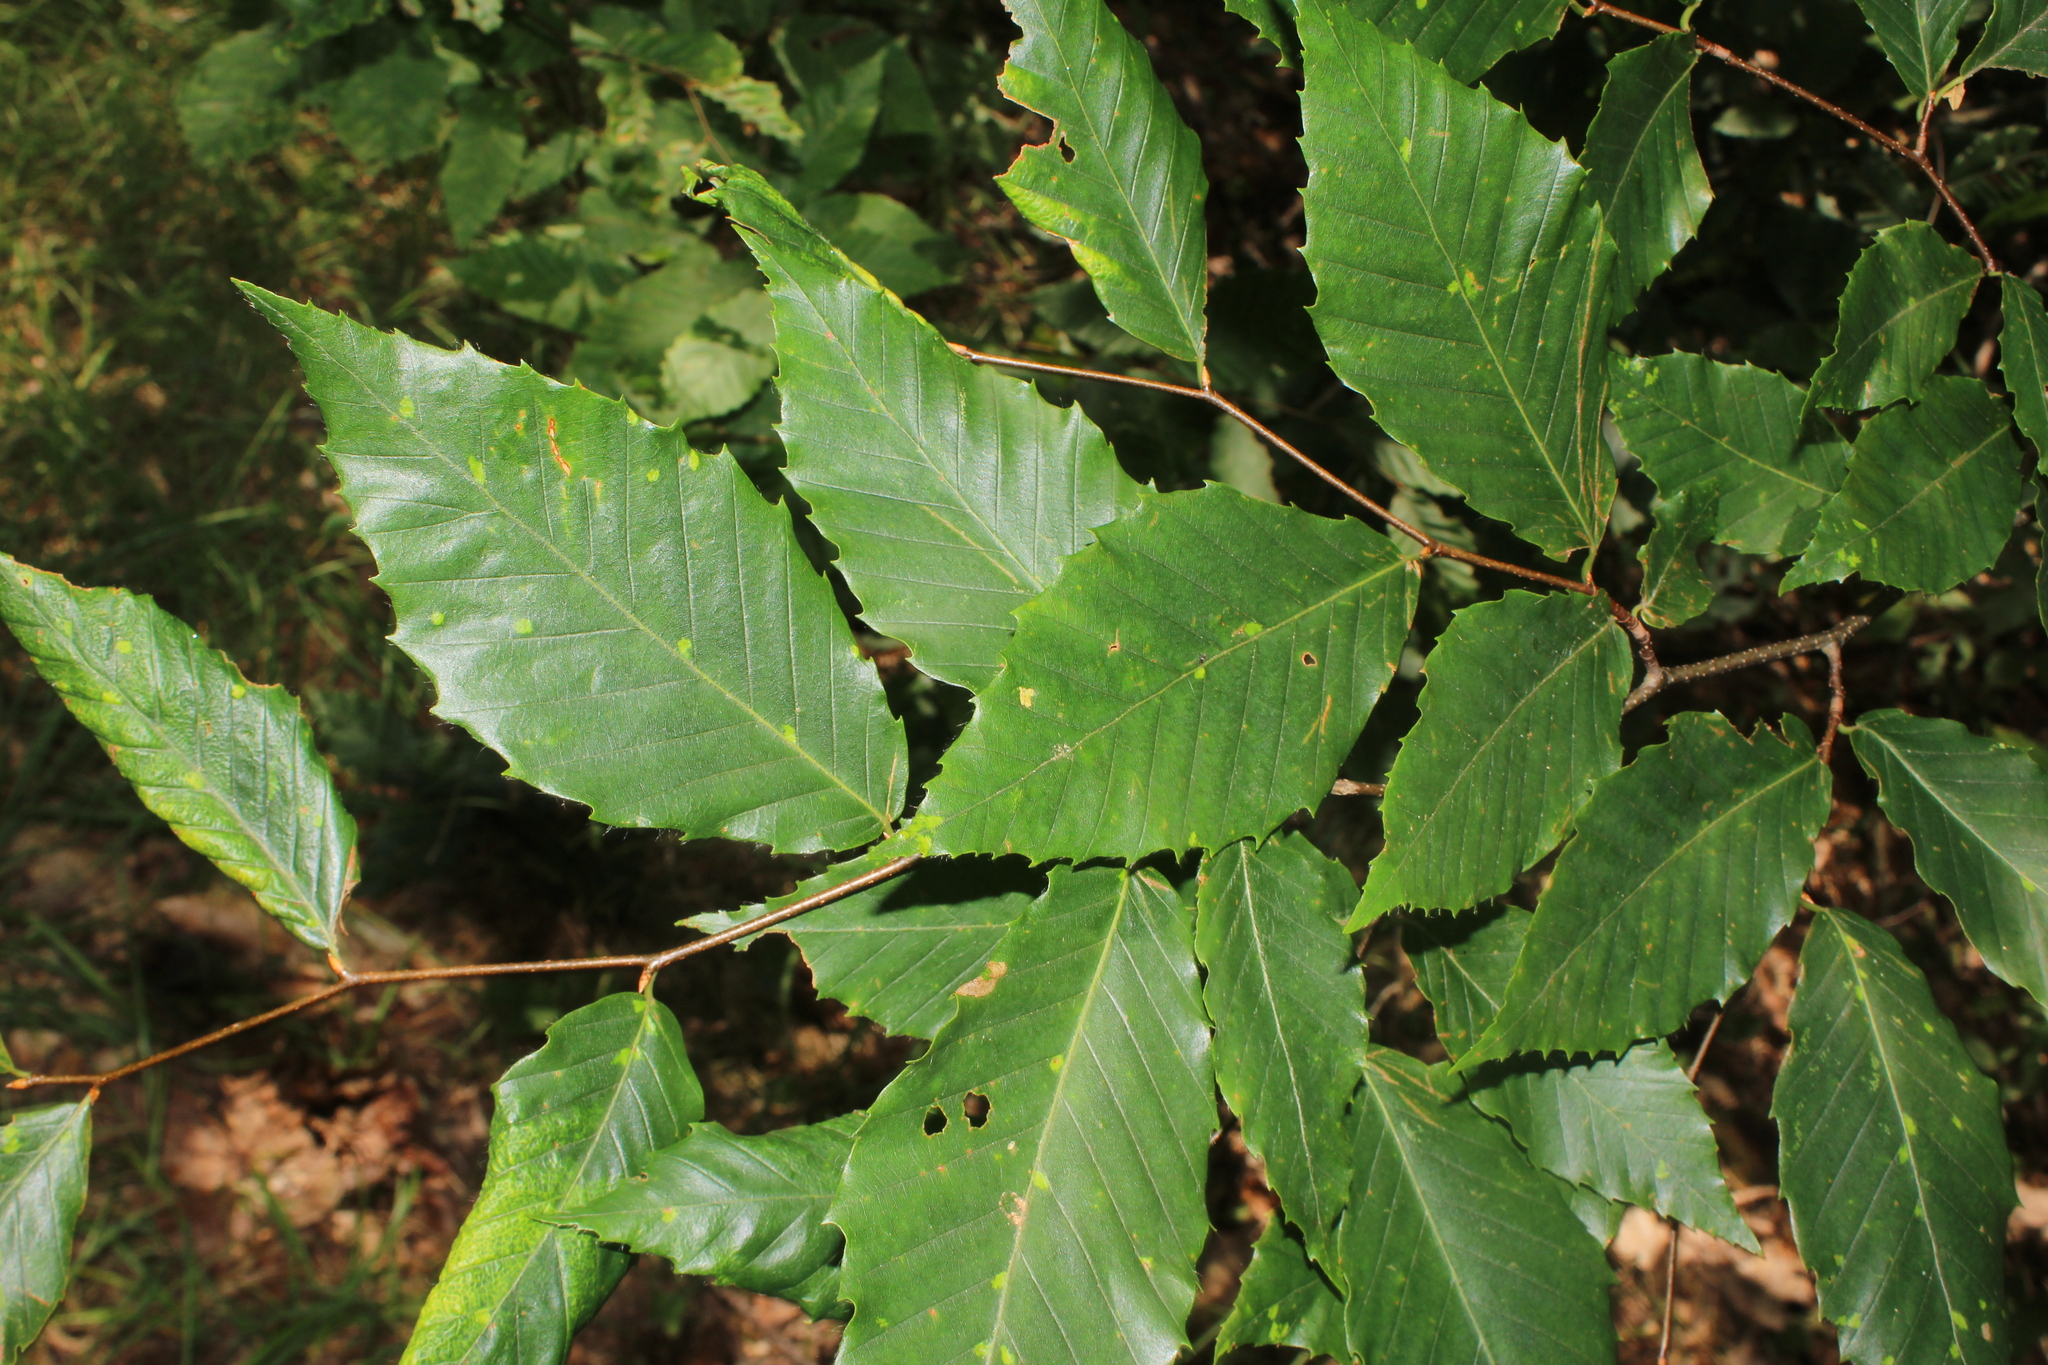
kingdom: Plantae
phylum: Tracheophyta
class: Magnoliopsida
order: Fagales
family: Fagaceae
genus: Fagus
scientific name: Fagus grandifolia
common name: American beech
